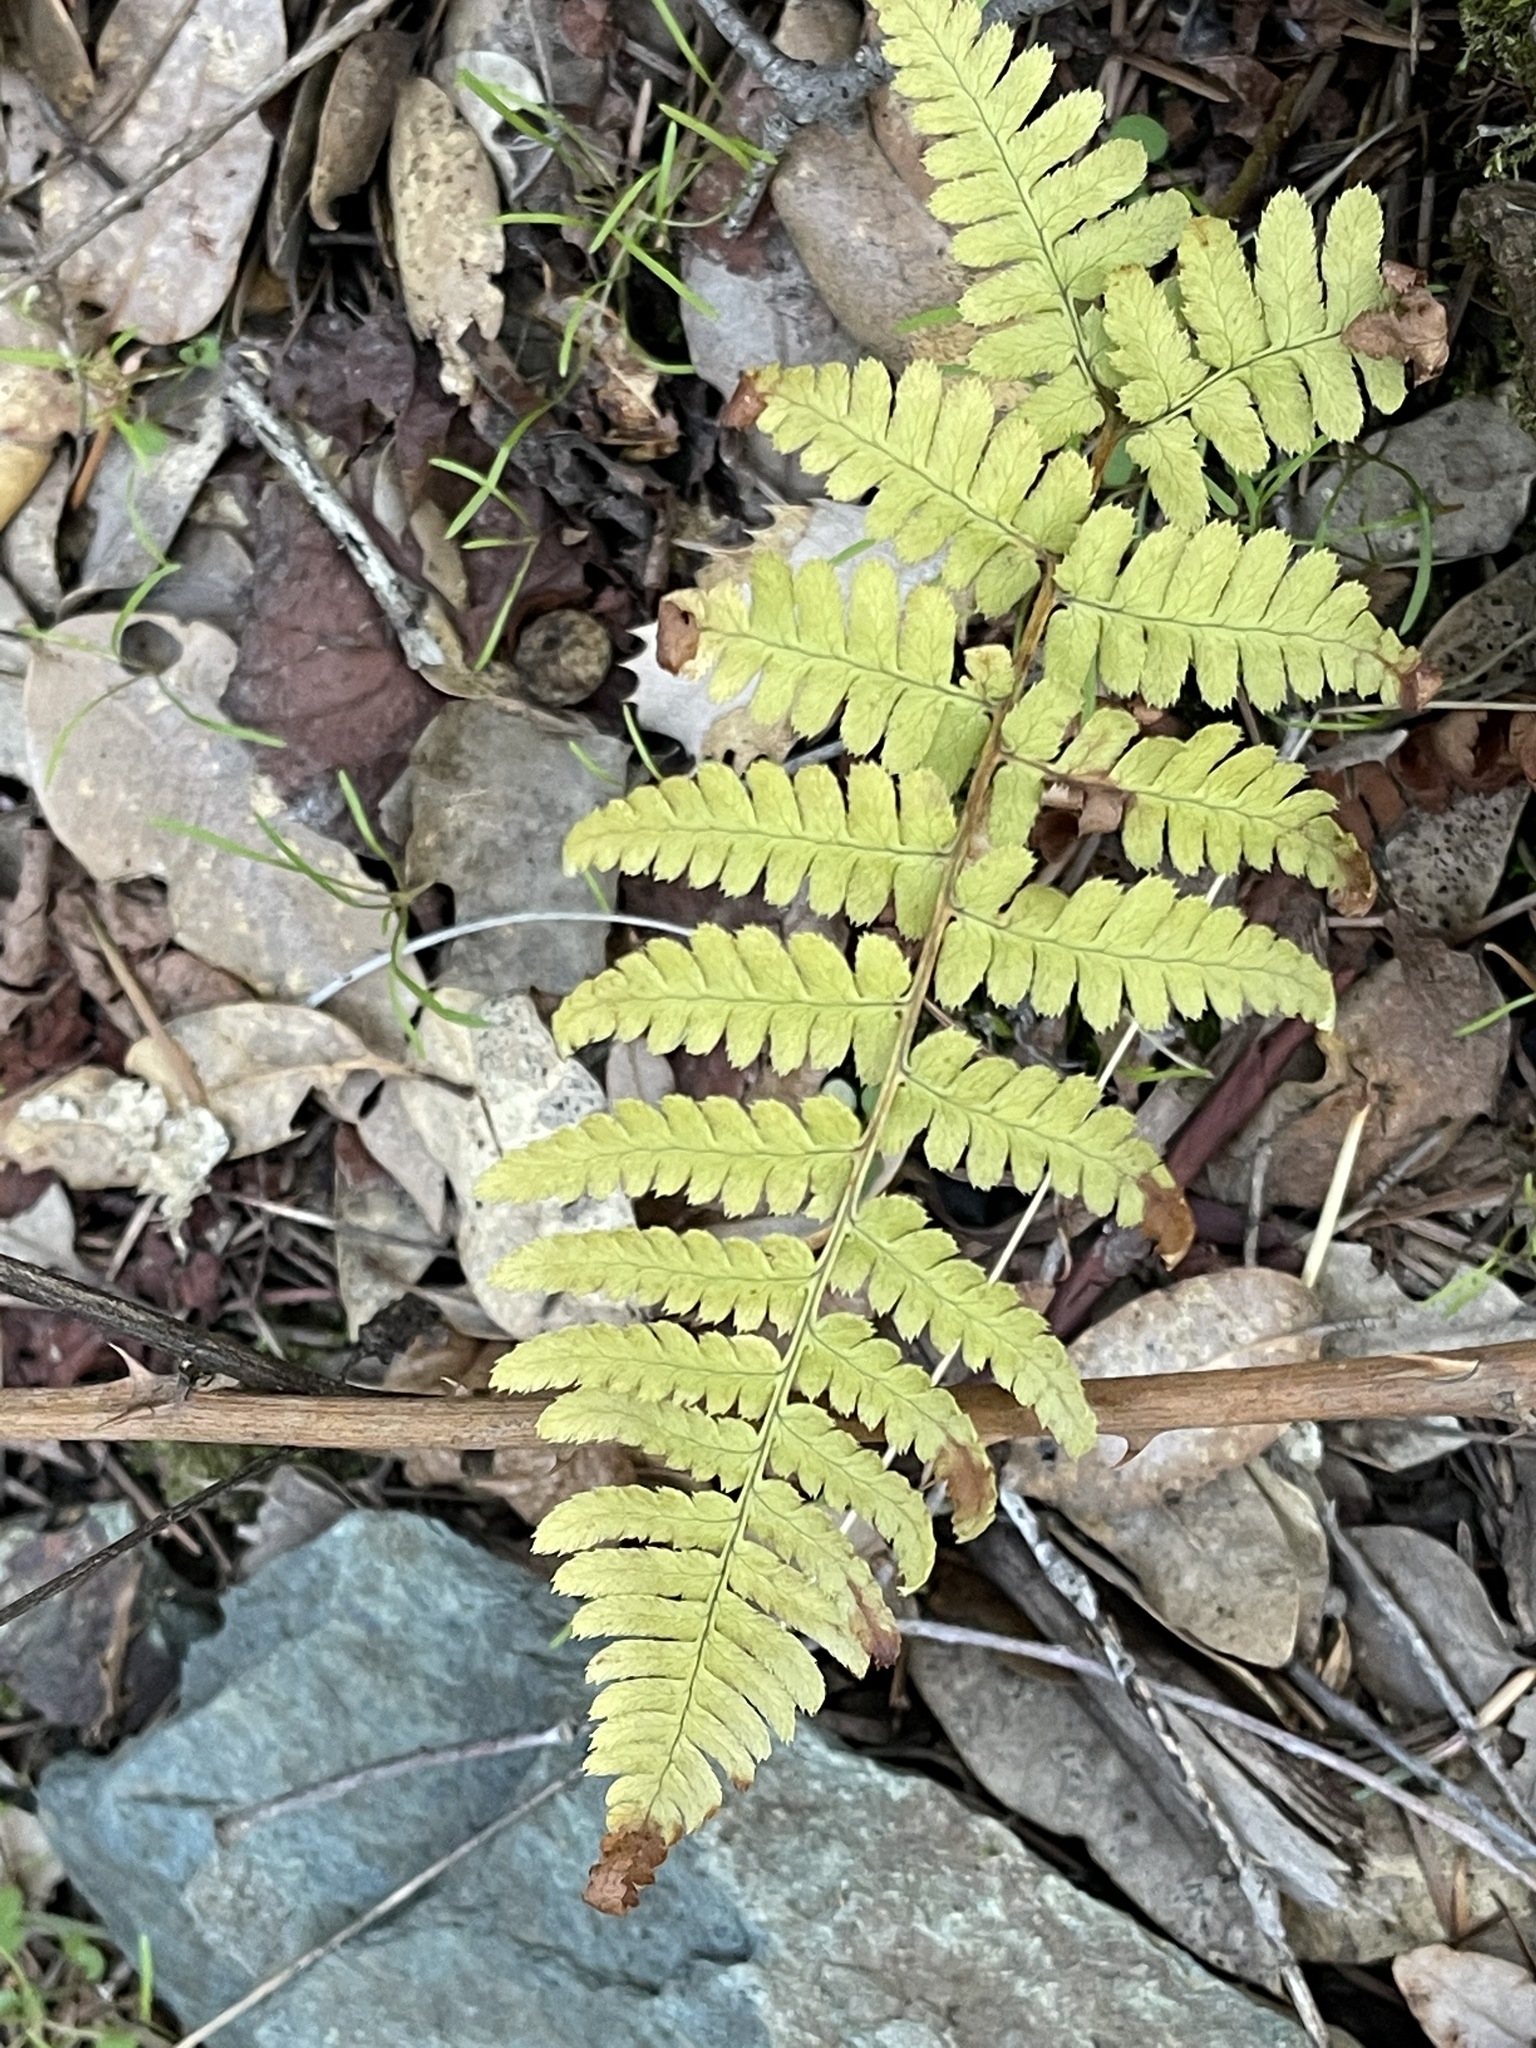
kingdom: Plantae
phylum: Tracheophyta
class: Polypodiopsida
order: Polypodiales
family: Dryopteridaceae
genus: Dryopteris
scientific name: Dryopteris arguta
